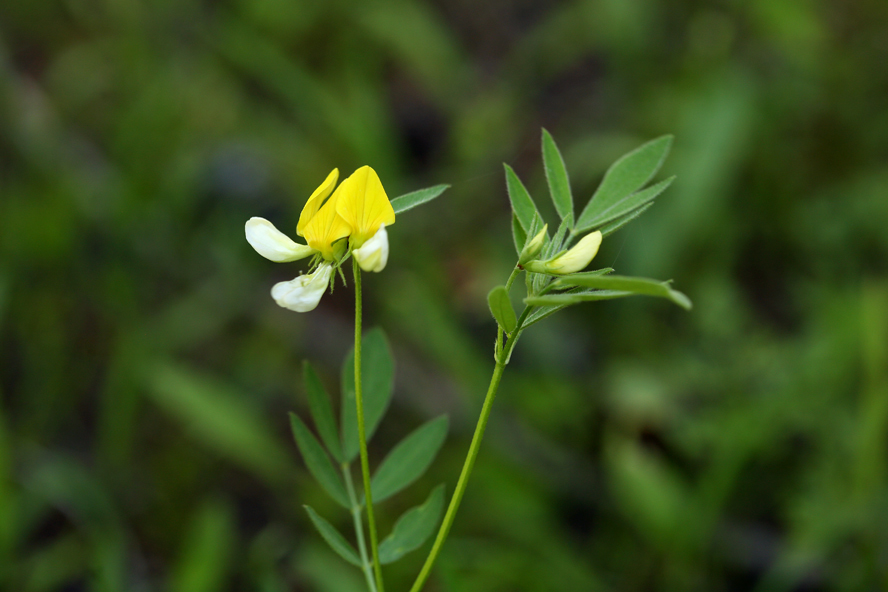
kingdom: Plantae
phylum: Tracheophyta
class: Magnoliopsida
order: Fabales
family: Fabaceae
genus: Hosackia
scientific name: Hosackia oblongifolia
